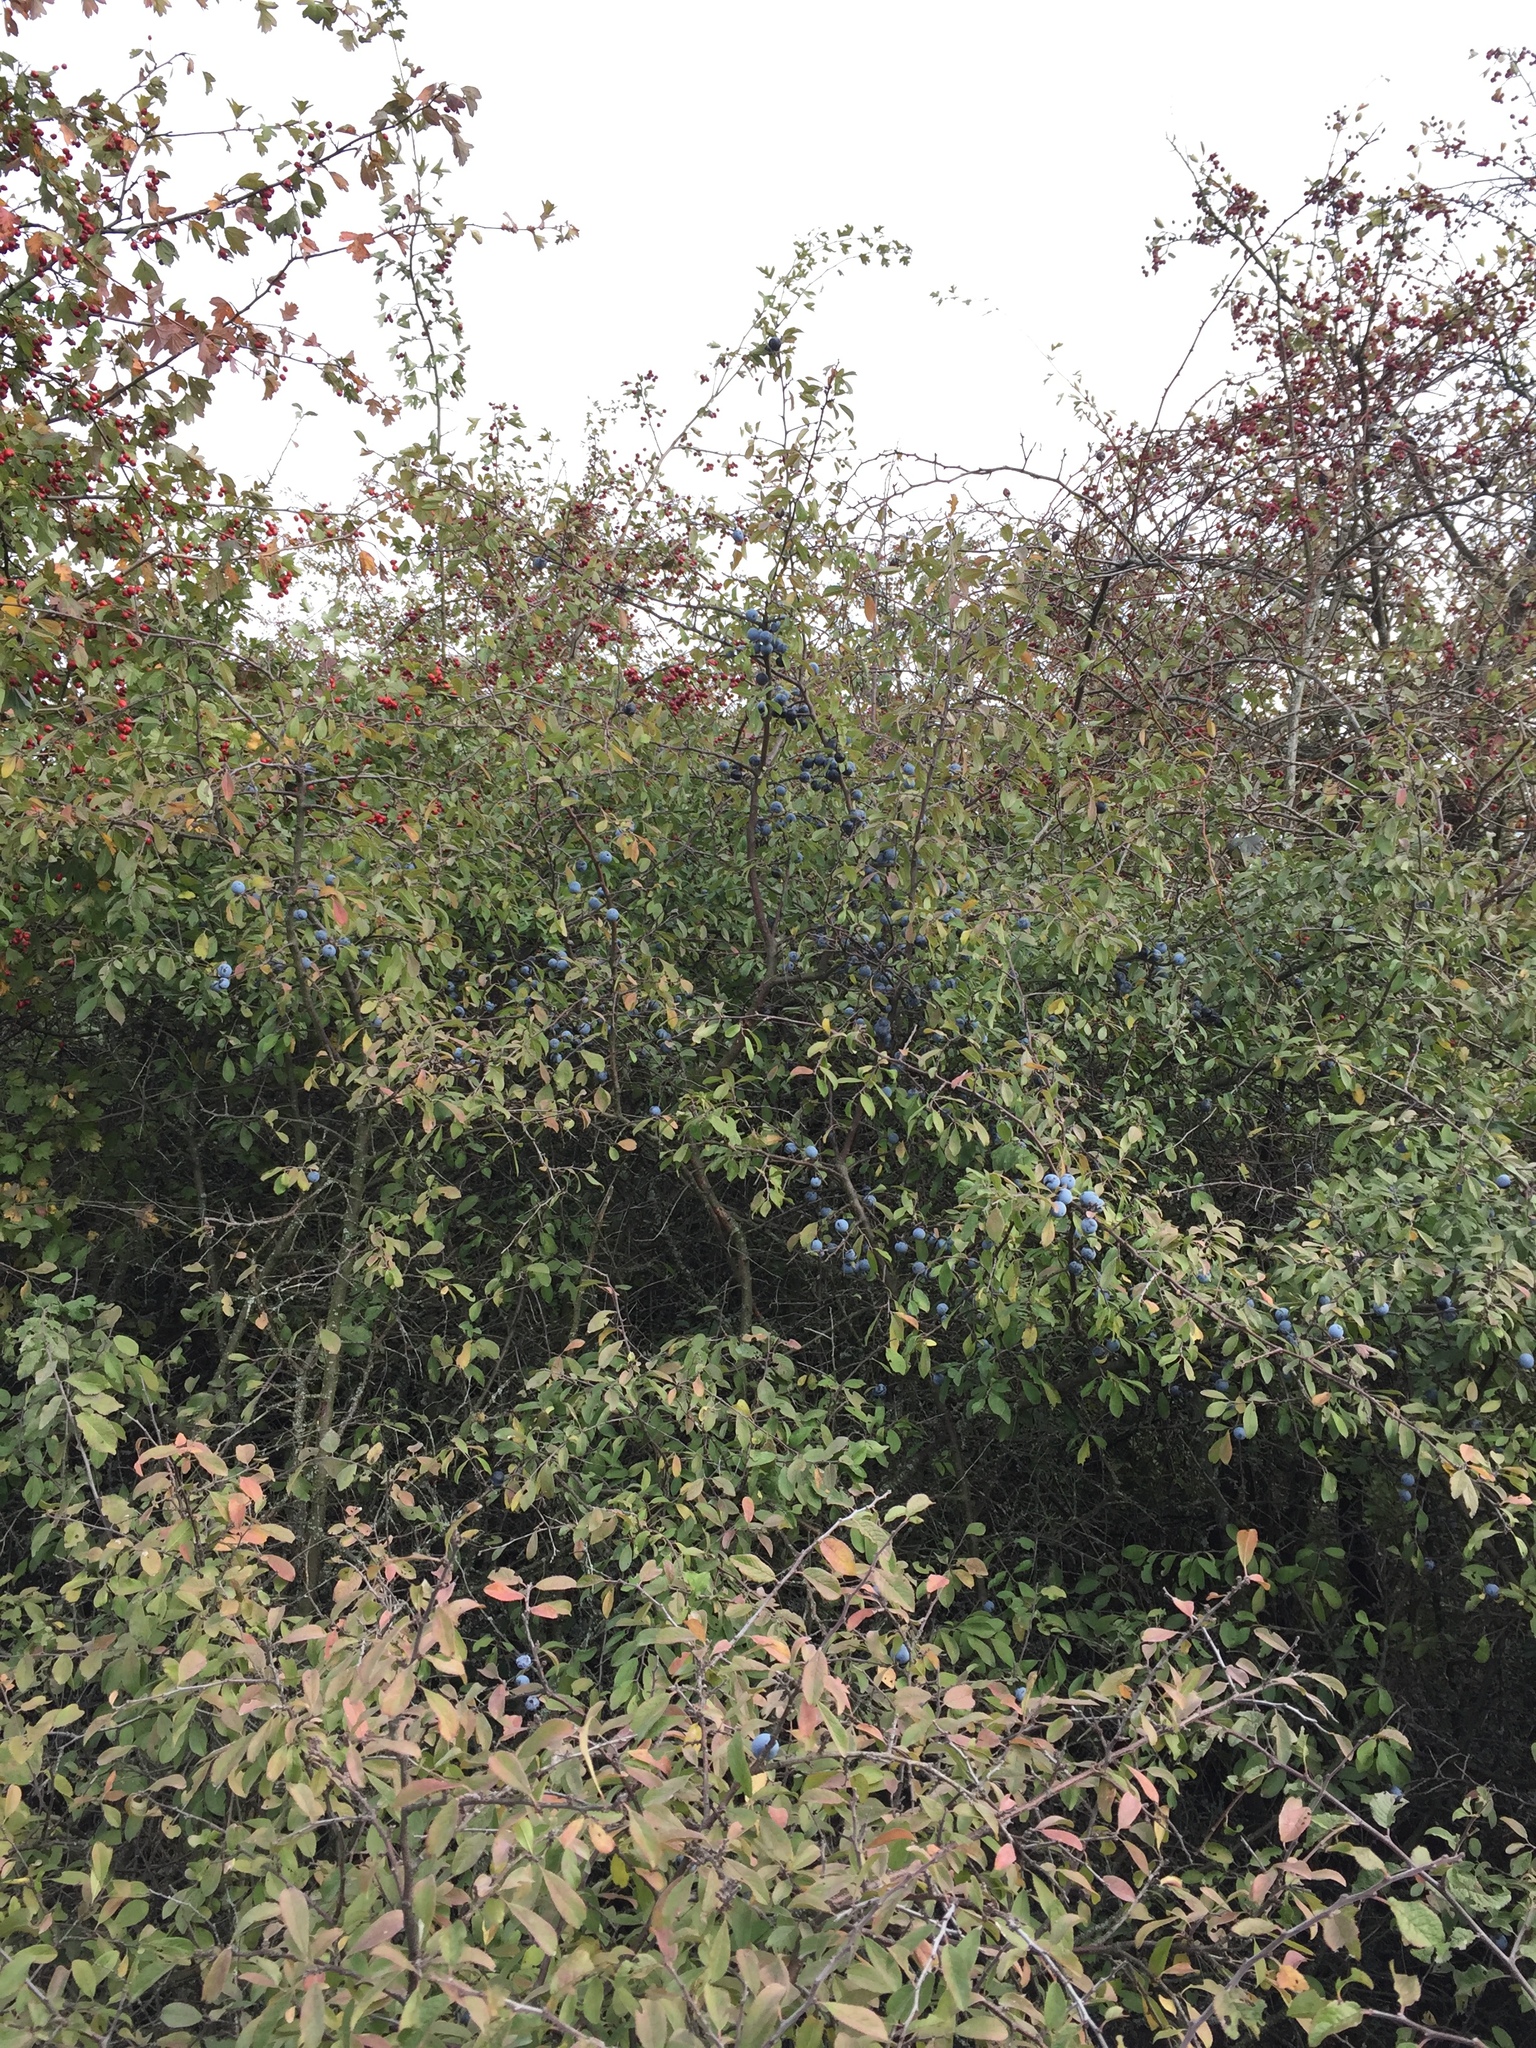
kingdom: Plantae
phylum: Tracheophyta
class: Magnoliopsida
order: Rosales
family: Rosaceae
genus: Prunus
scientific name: Prunus spinosa
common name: Blackthorn
